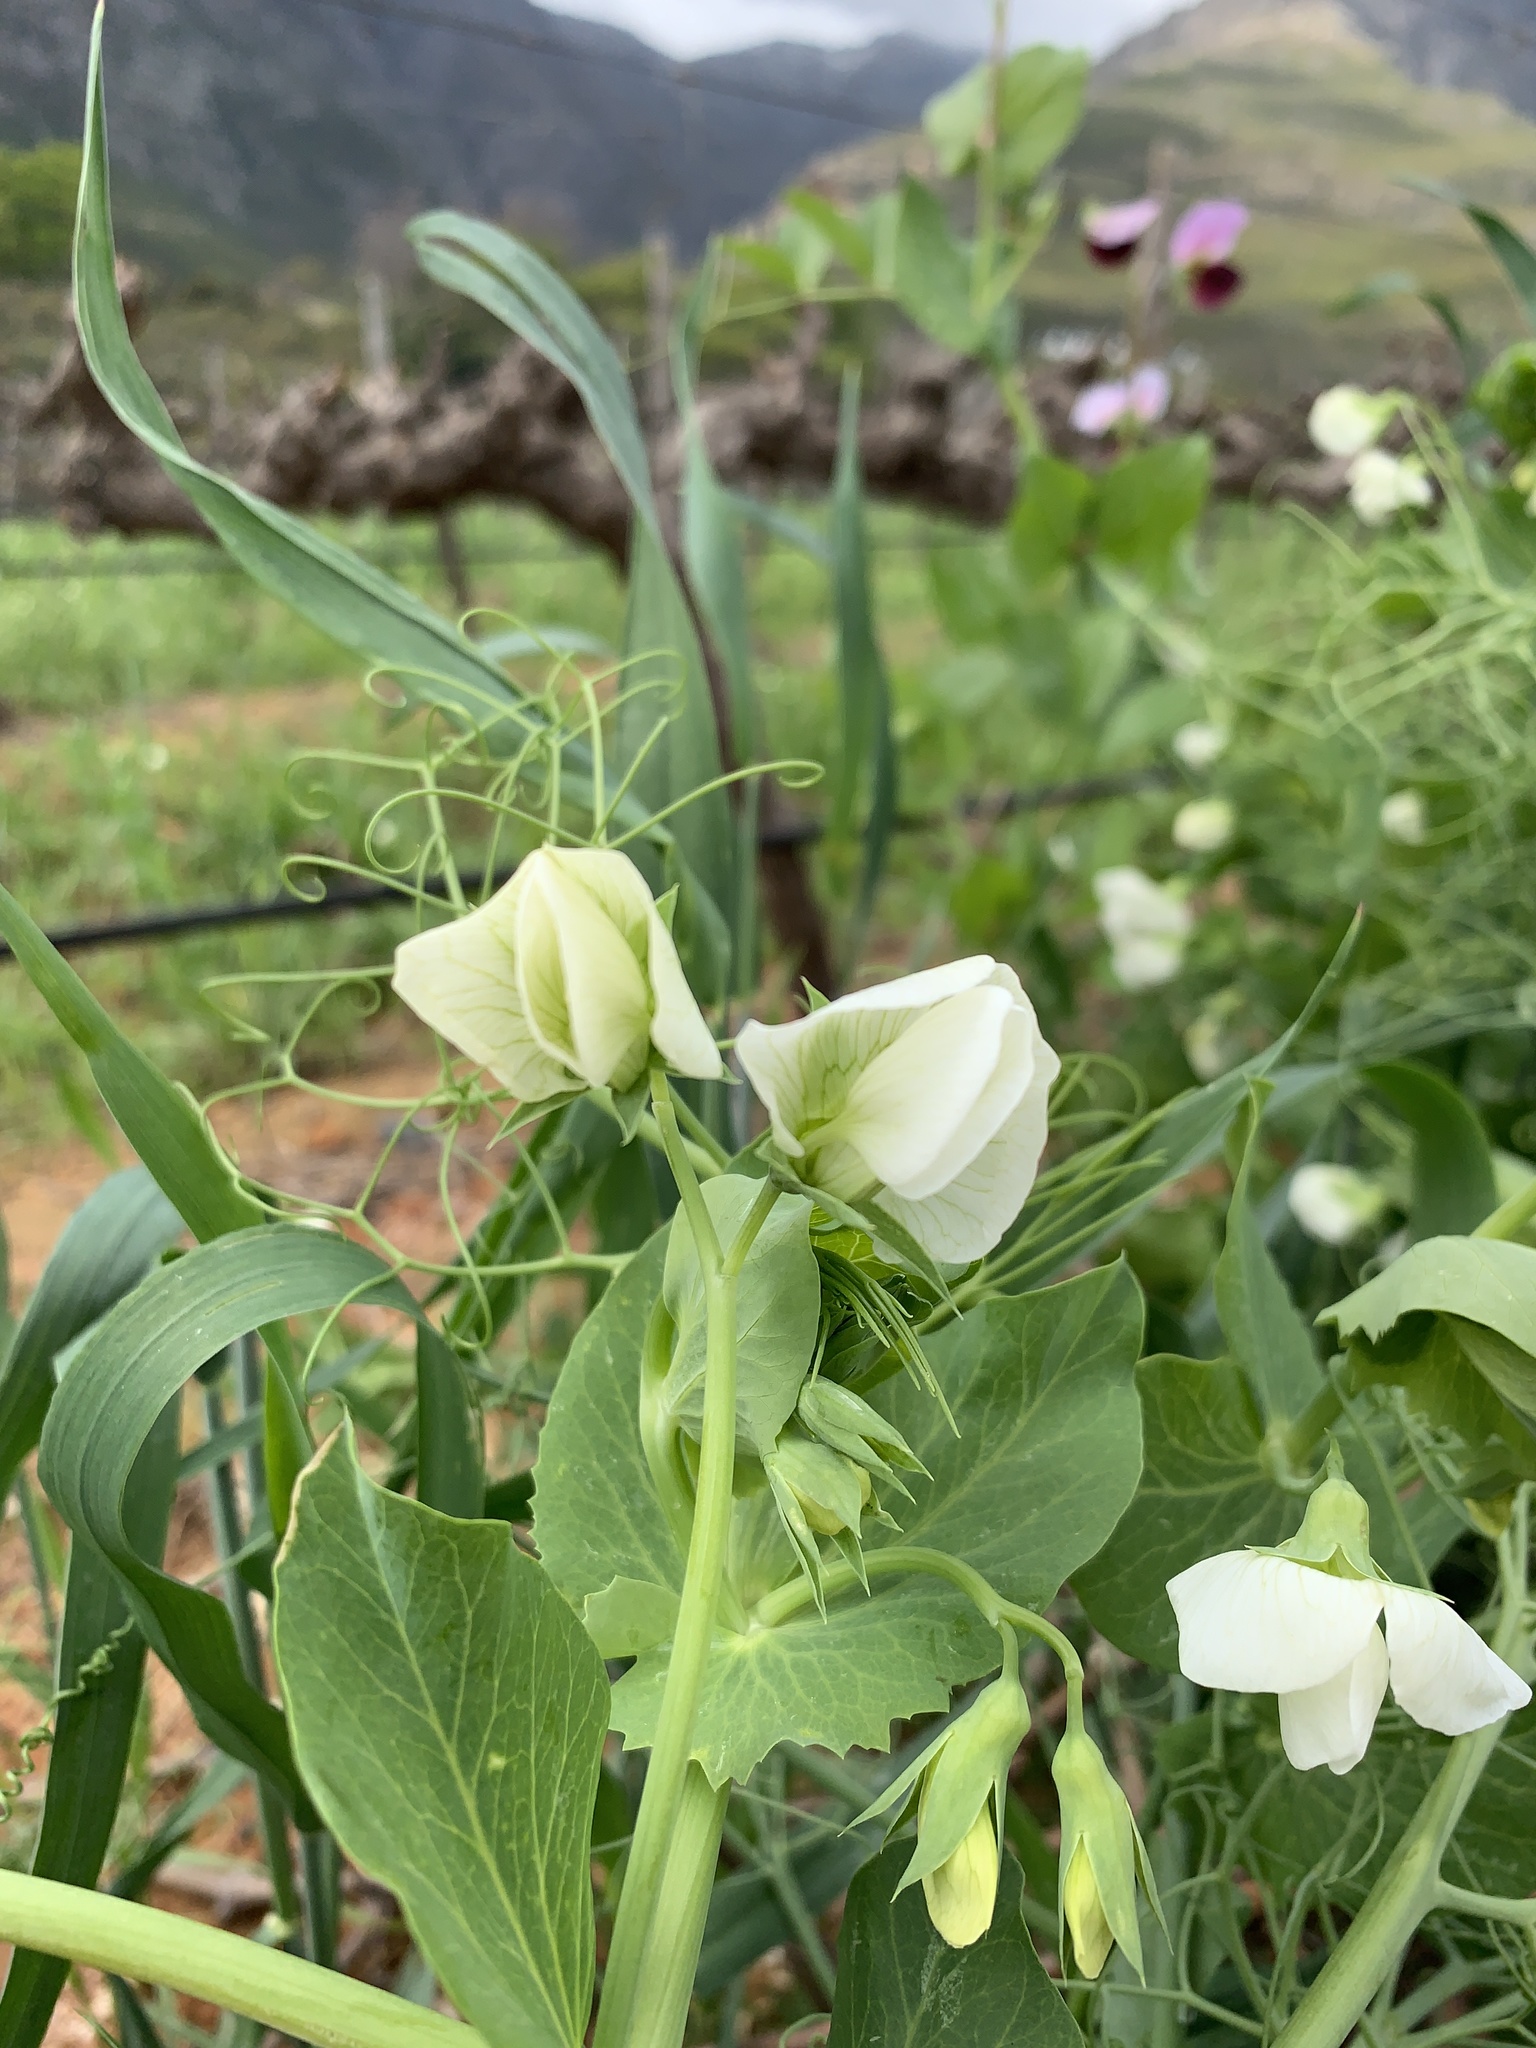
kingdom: Plantae
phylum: Tracheophyta
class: Magnoliopsida
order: Fabales
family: Fabaceae
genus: Lathyrus
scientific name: Lathyrus oleraceus
